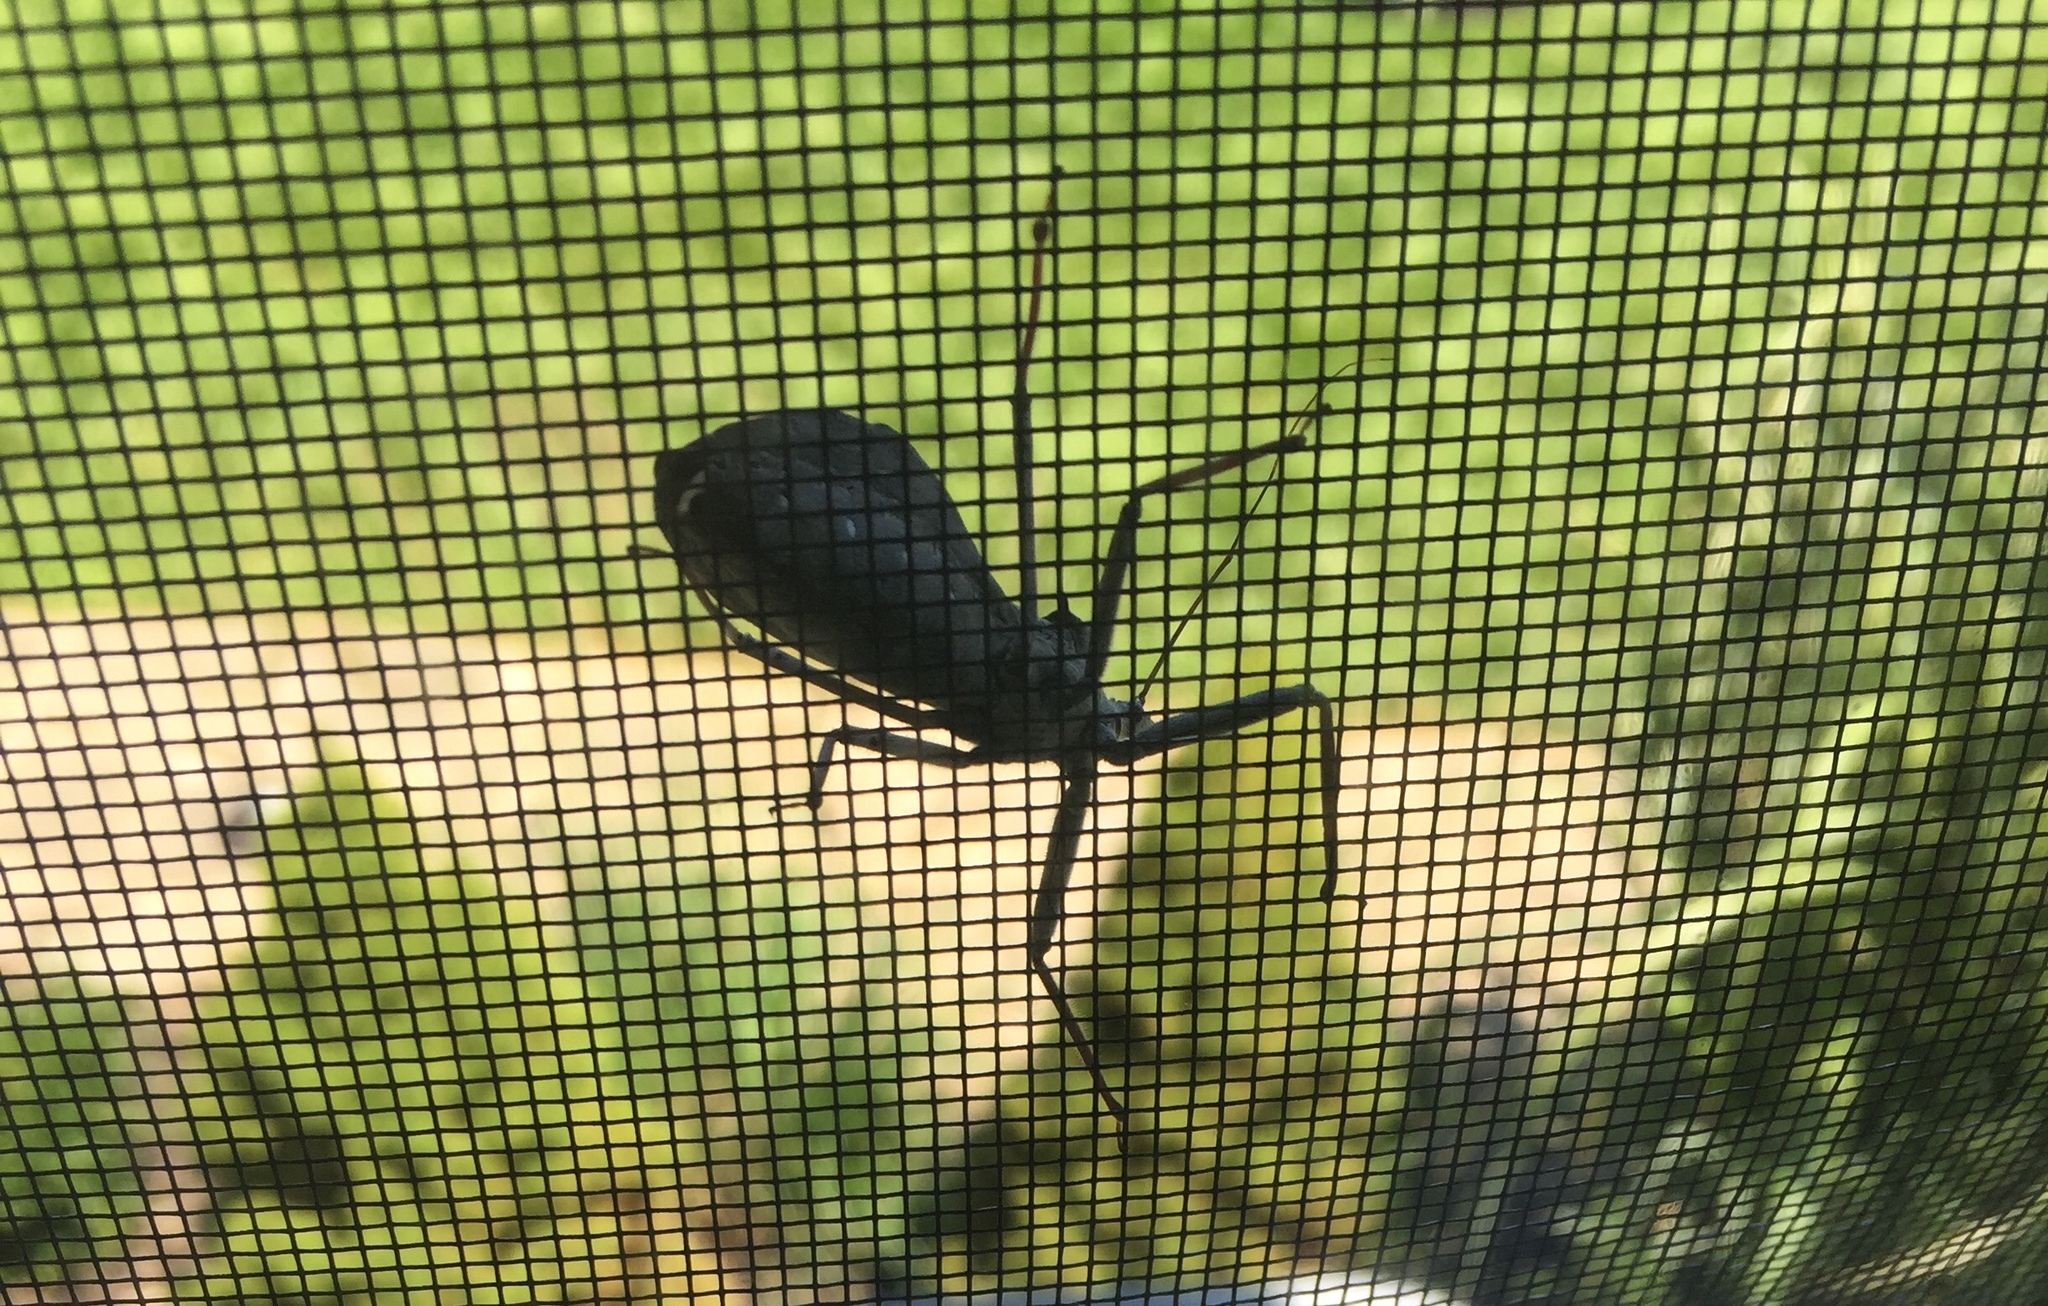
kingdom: Animalia
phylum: Arthropoda
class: Insecta
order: Hemiptera
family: Reduviidae
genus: Arilus
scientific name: Arilus cristatus
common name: North american wheel bug
